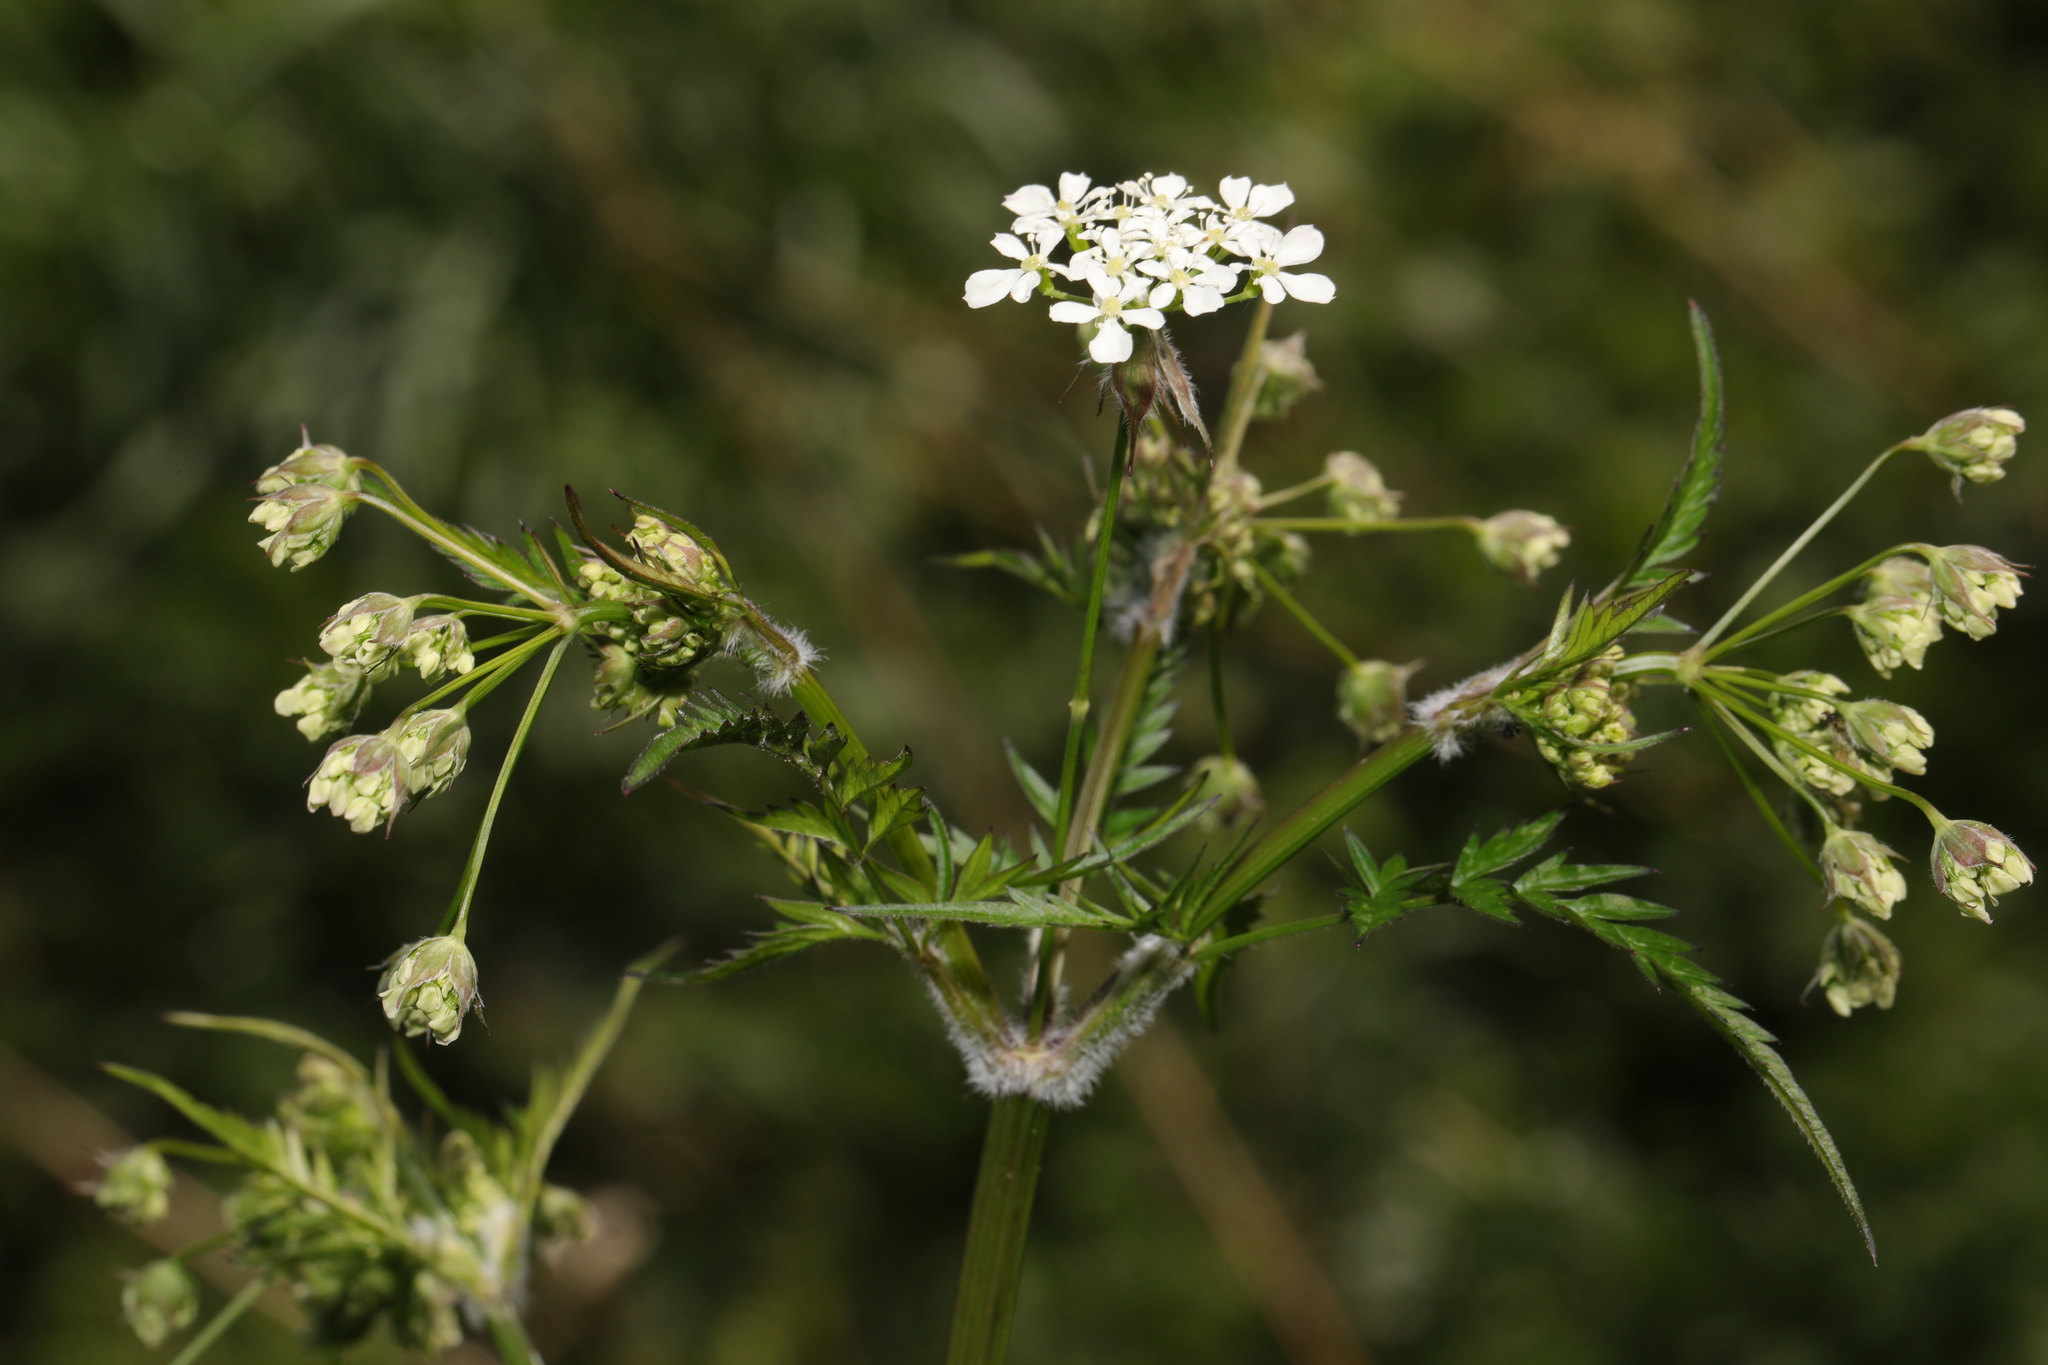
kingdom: Plantae
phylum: Tracheophyta
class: Magnoliopsida
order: Apiales
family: Apiaceae
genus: Anthriscus
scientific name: Anthriscus sylvestris
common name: Cow parsley
